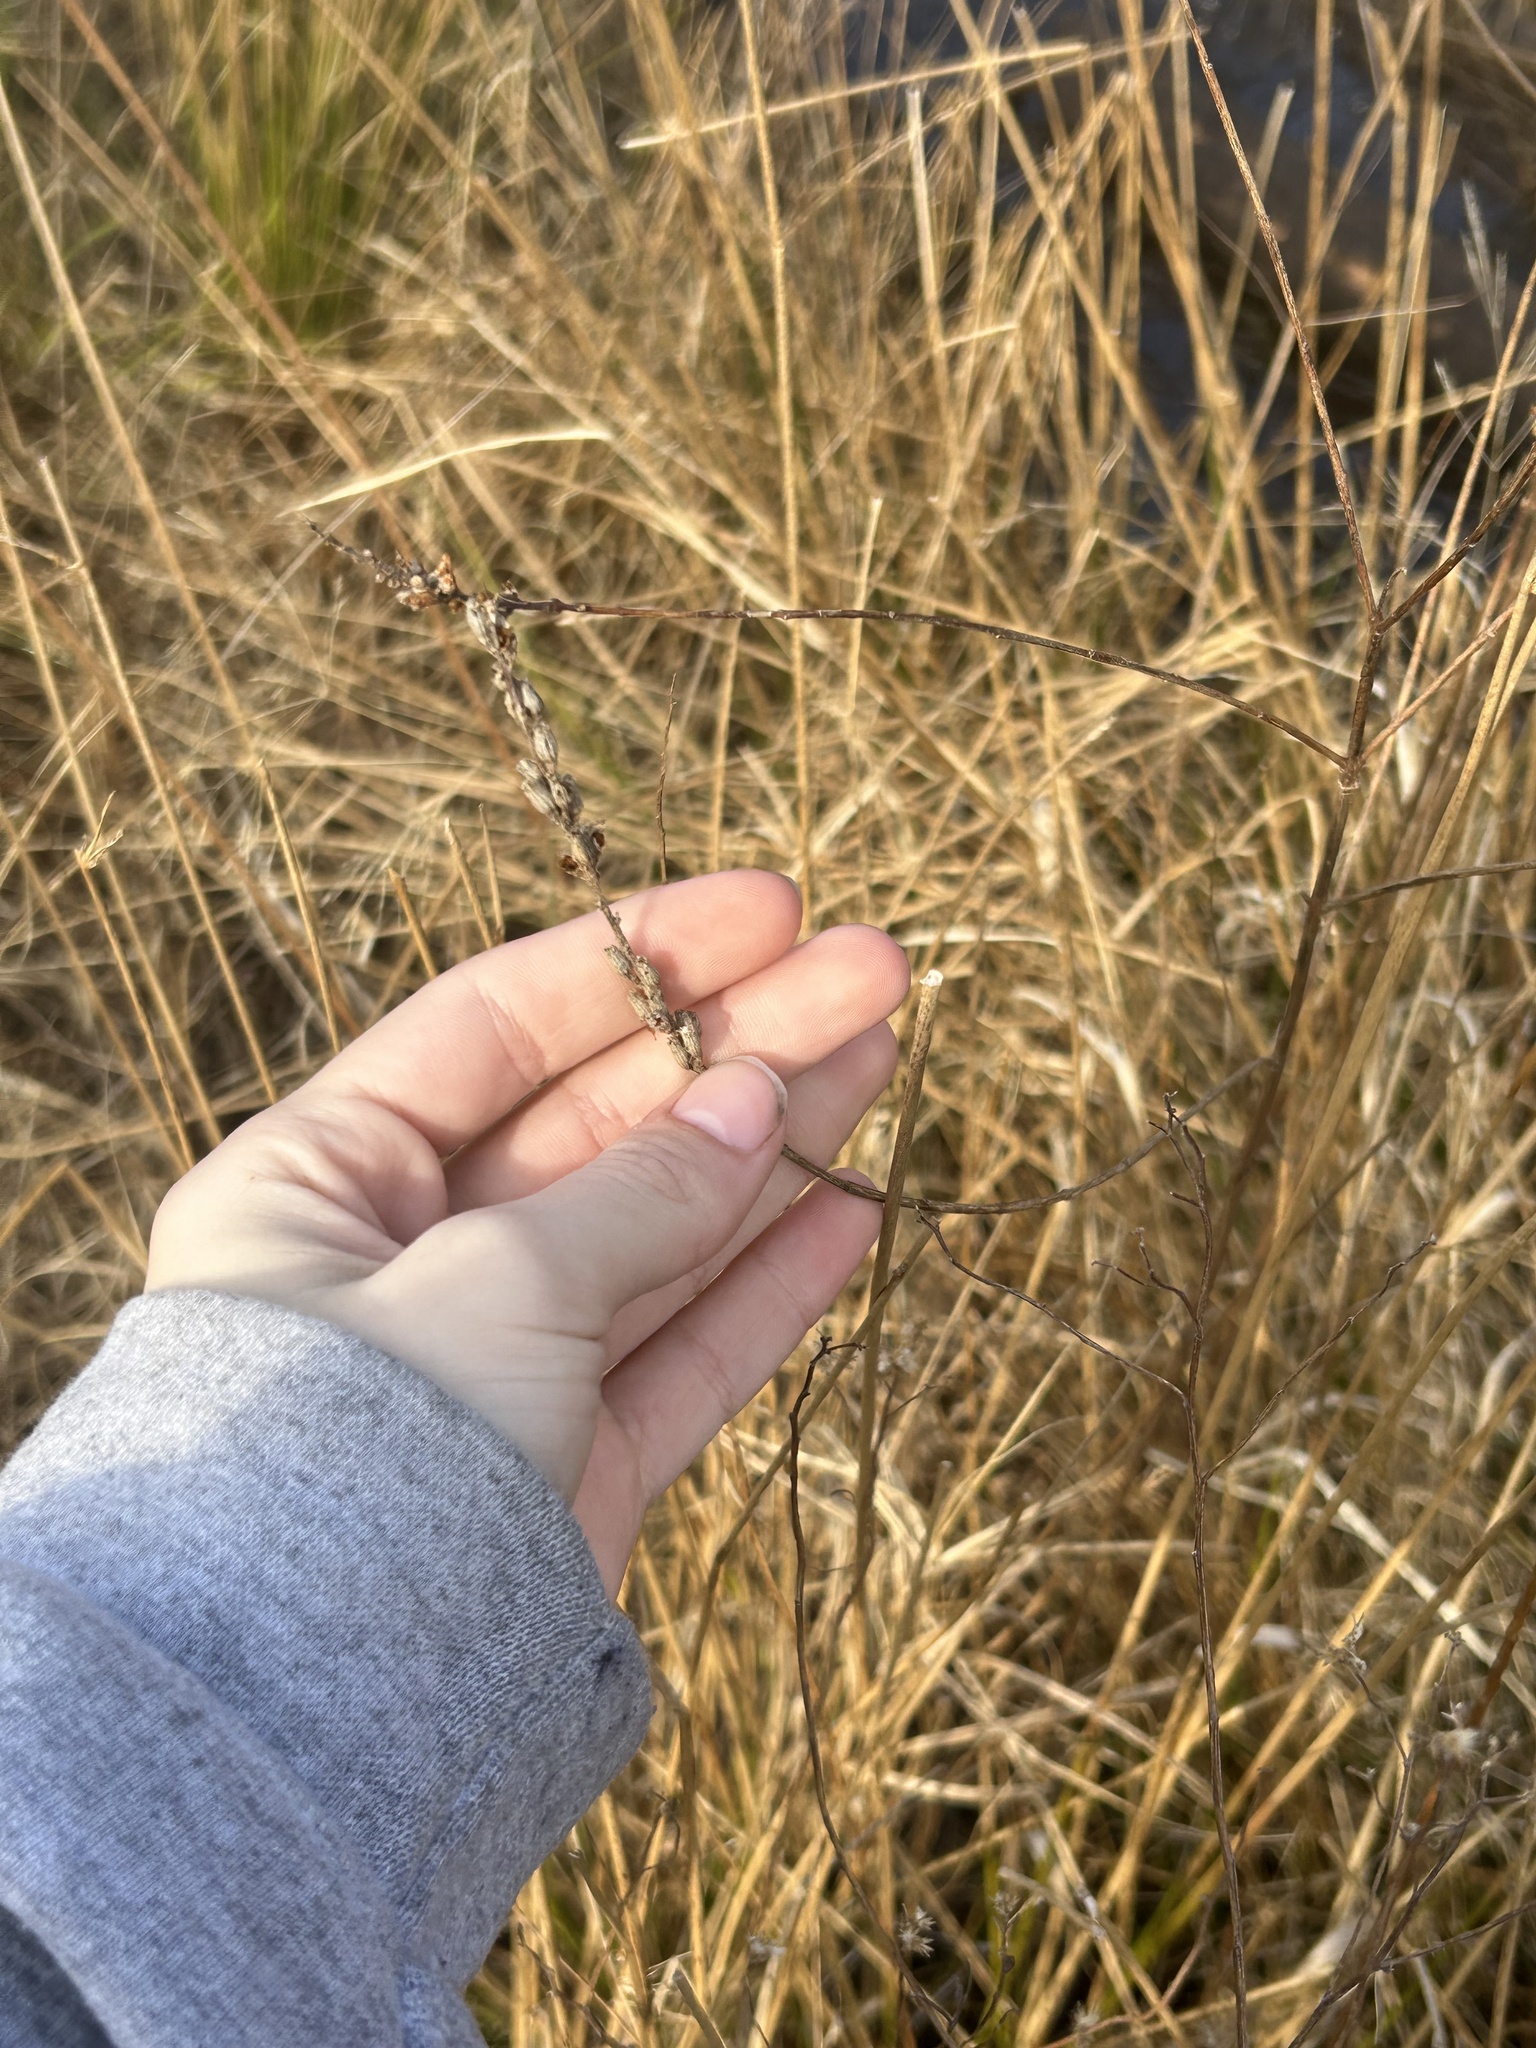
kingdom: Plantae
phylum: Tracheophyta
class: Magnoliopsida
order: Myrtales
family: Lythraceae
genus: Lythrum
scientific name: Lythrum salicaria
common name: Purple loosestrife
